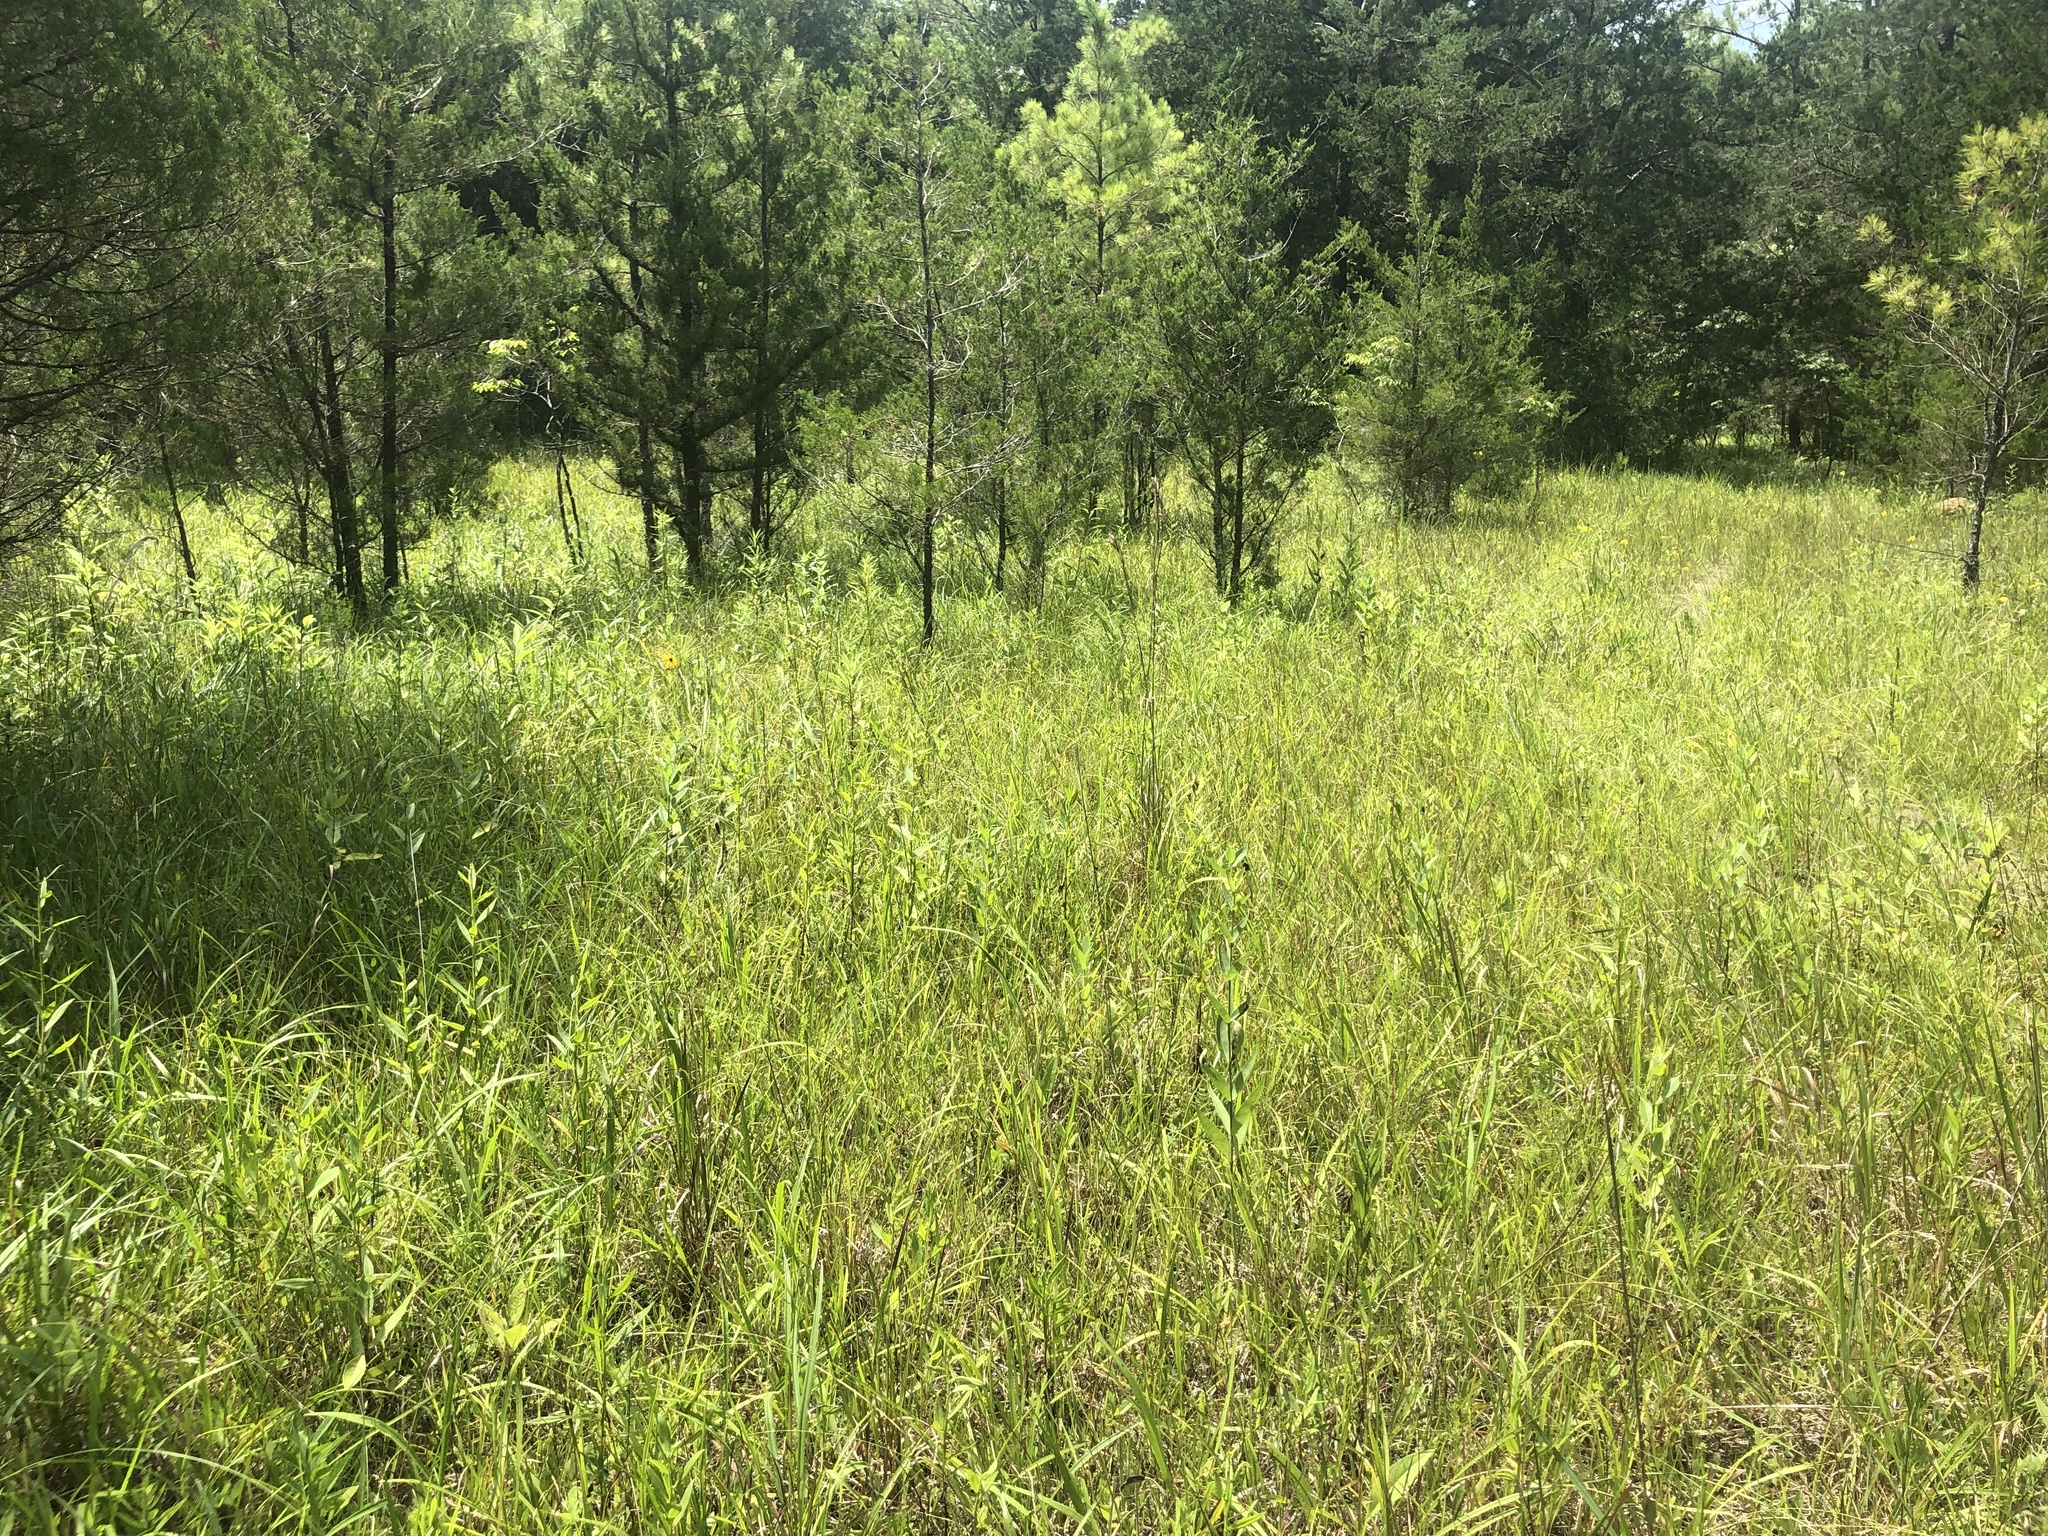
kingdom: Plantae
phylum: Tracheophyta
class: Pinopsida
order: Pinales
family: Cupressaceae
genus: Juniperus
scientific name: Juniperus virginiana
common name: Red juniper
